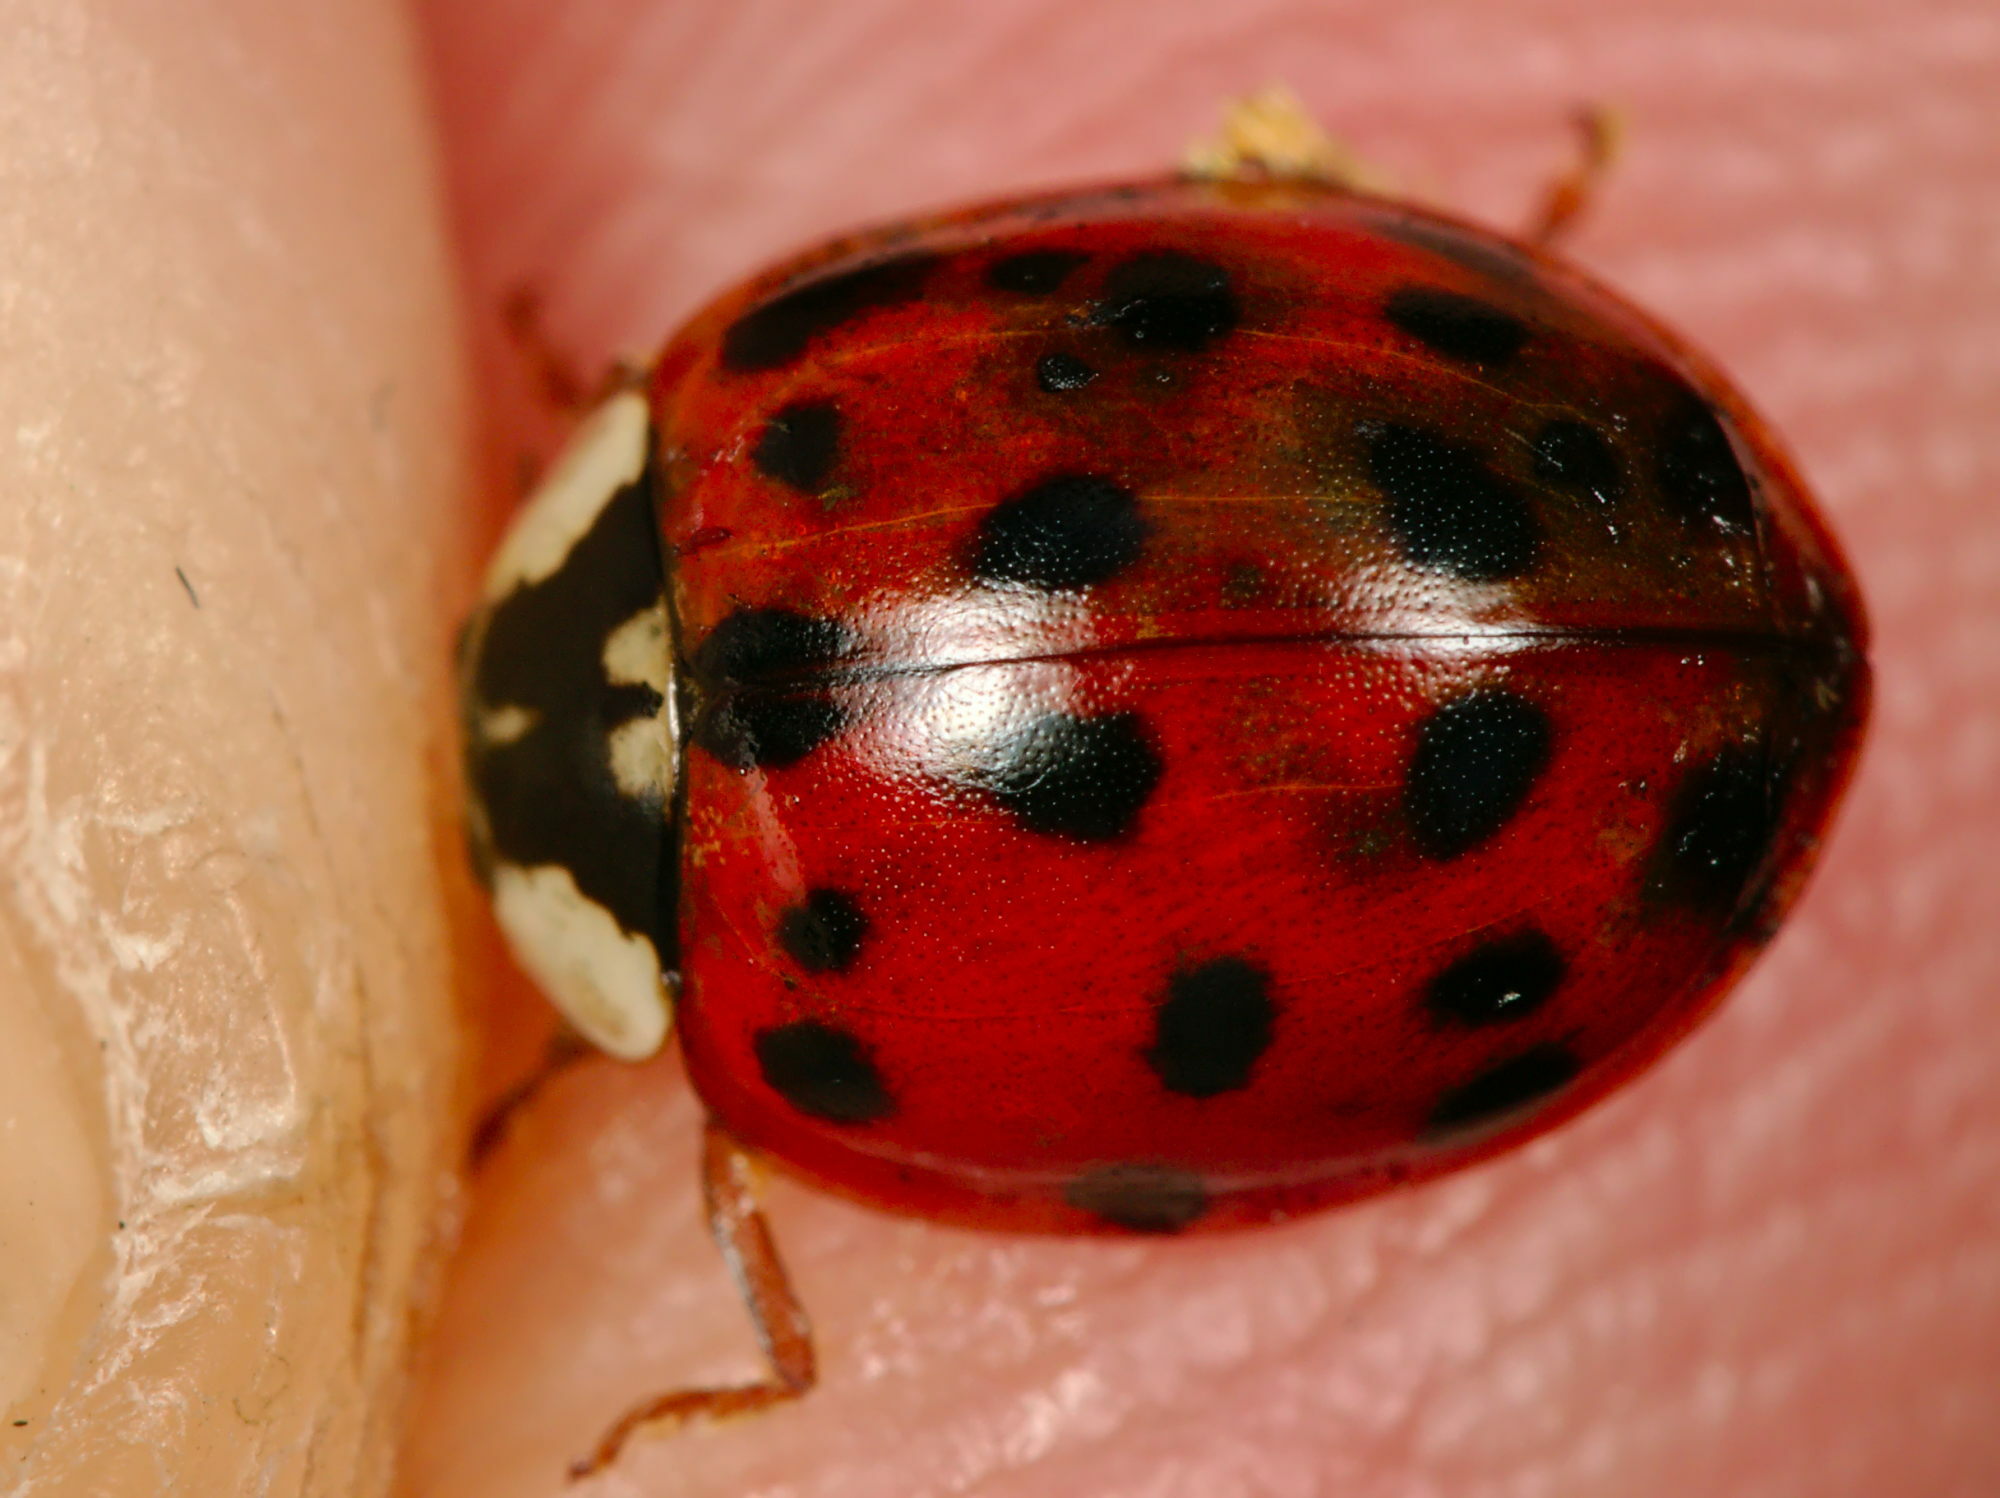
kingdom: Animalia
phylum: Arthropoda
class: Insecta
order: Coleoptera
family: Coccinellidae
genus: Harmonia
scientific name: Harmonia axyridis
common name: Harlequin ladybird
